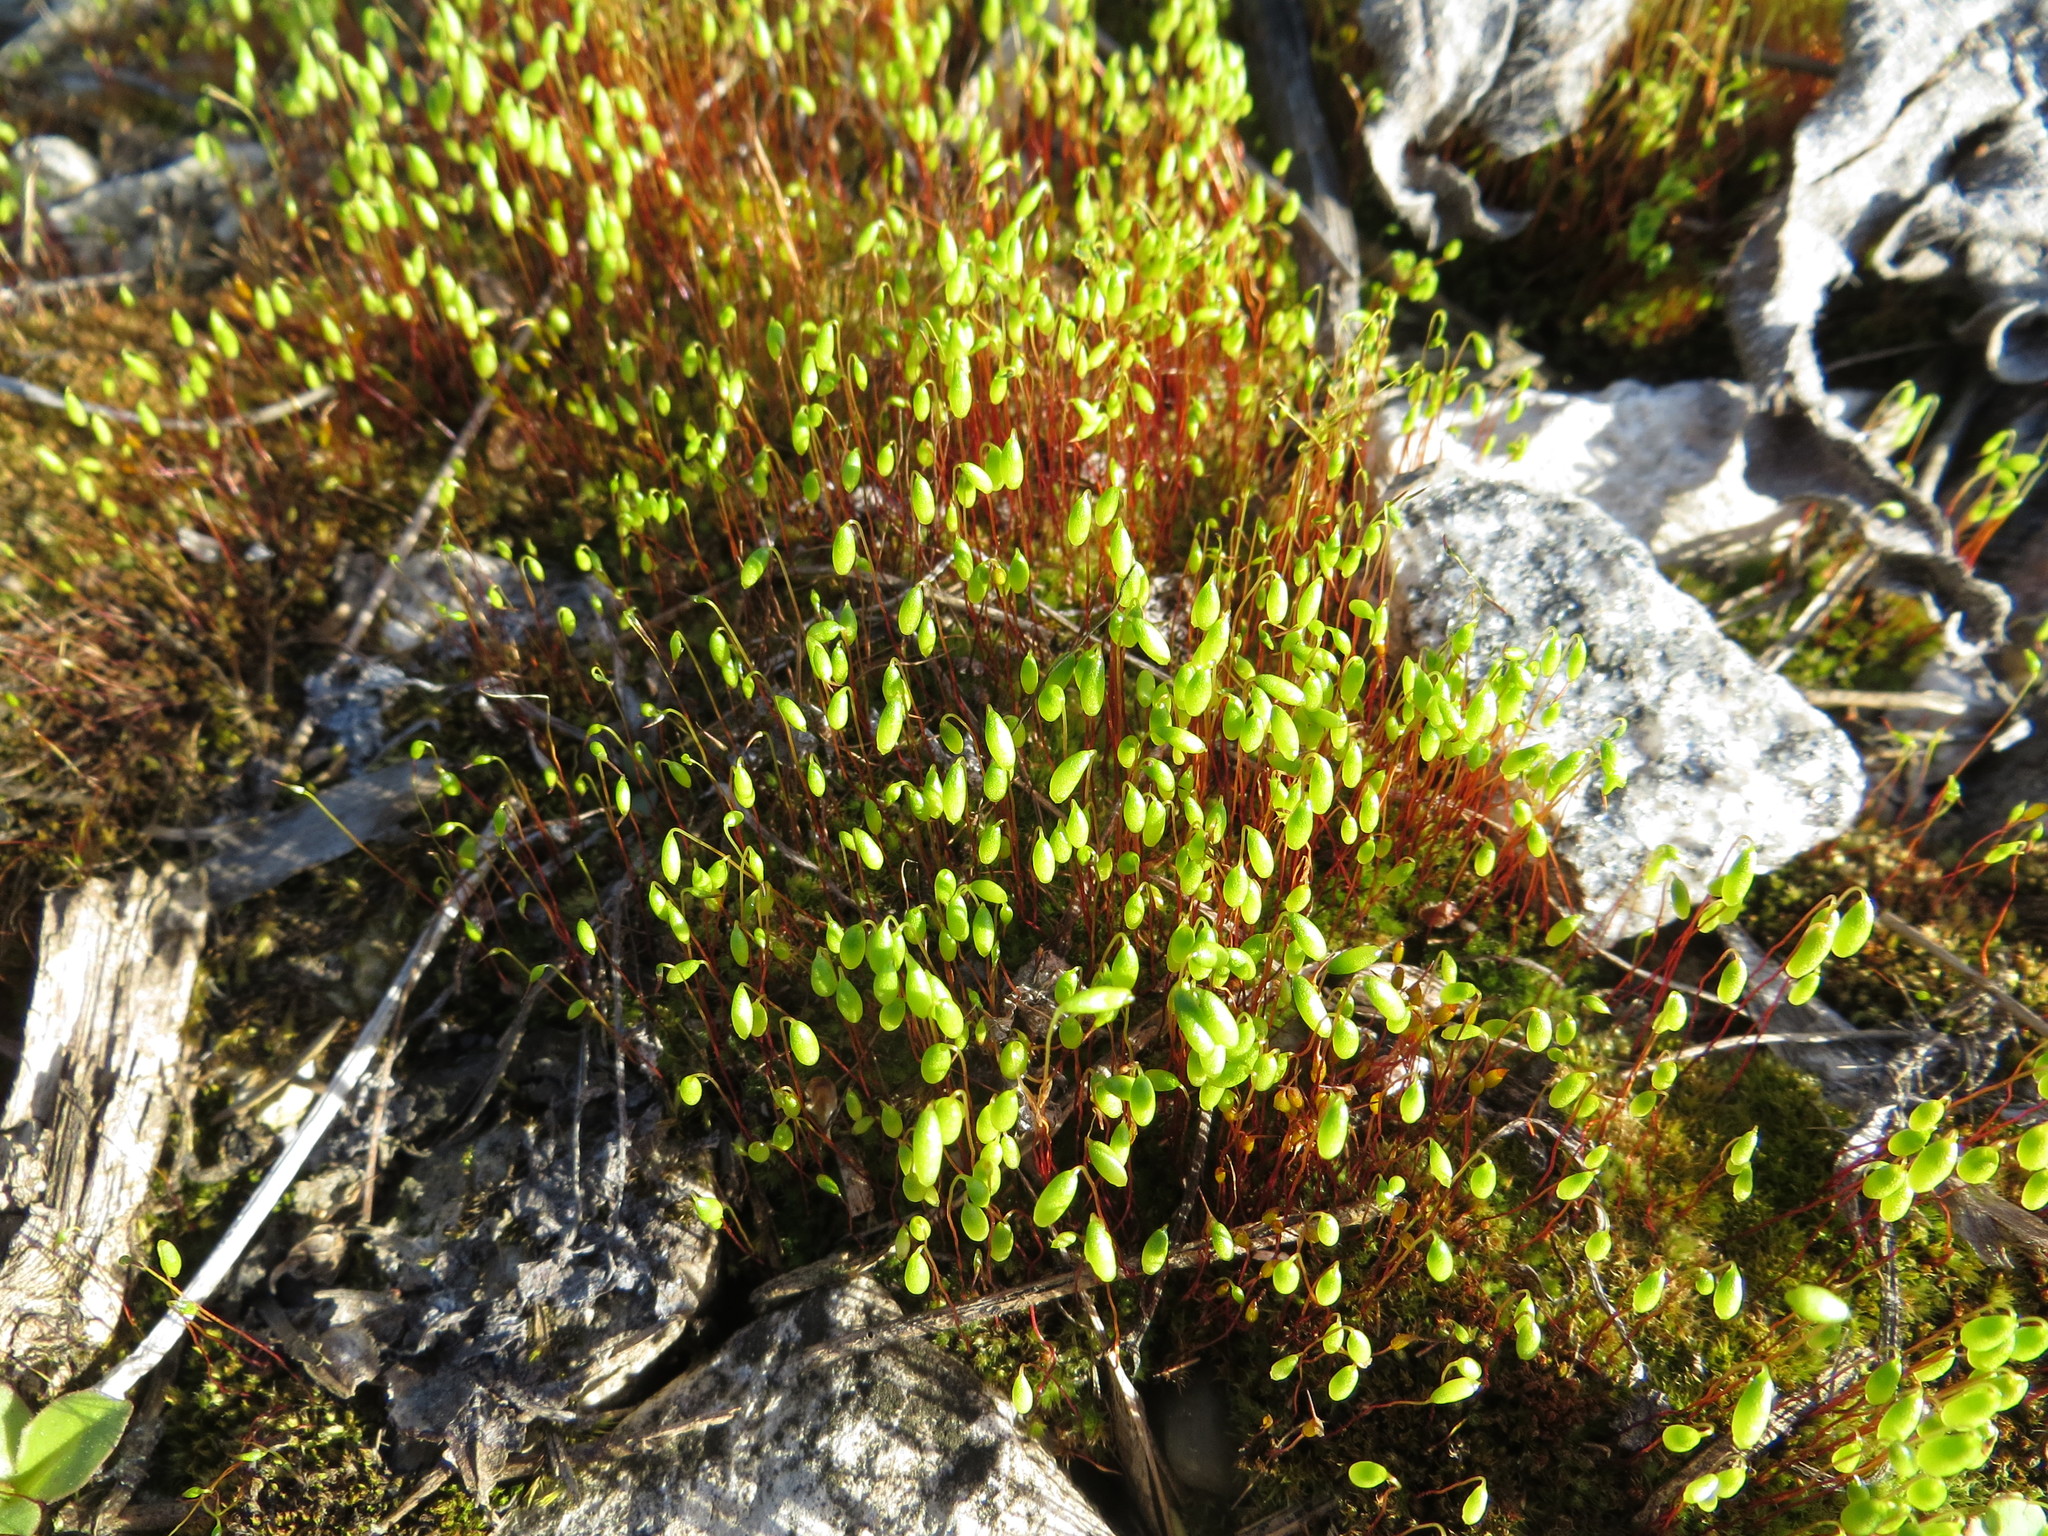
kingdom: Plantae
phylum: Bryophyta
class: Bryopsida
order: Bryales
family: Mniaceae
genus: Pohlia
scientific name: Pohlia nutans
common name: Nodding thread-moss
